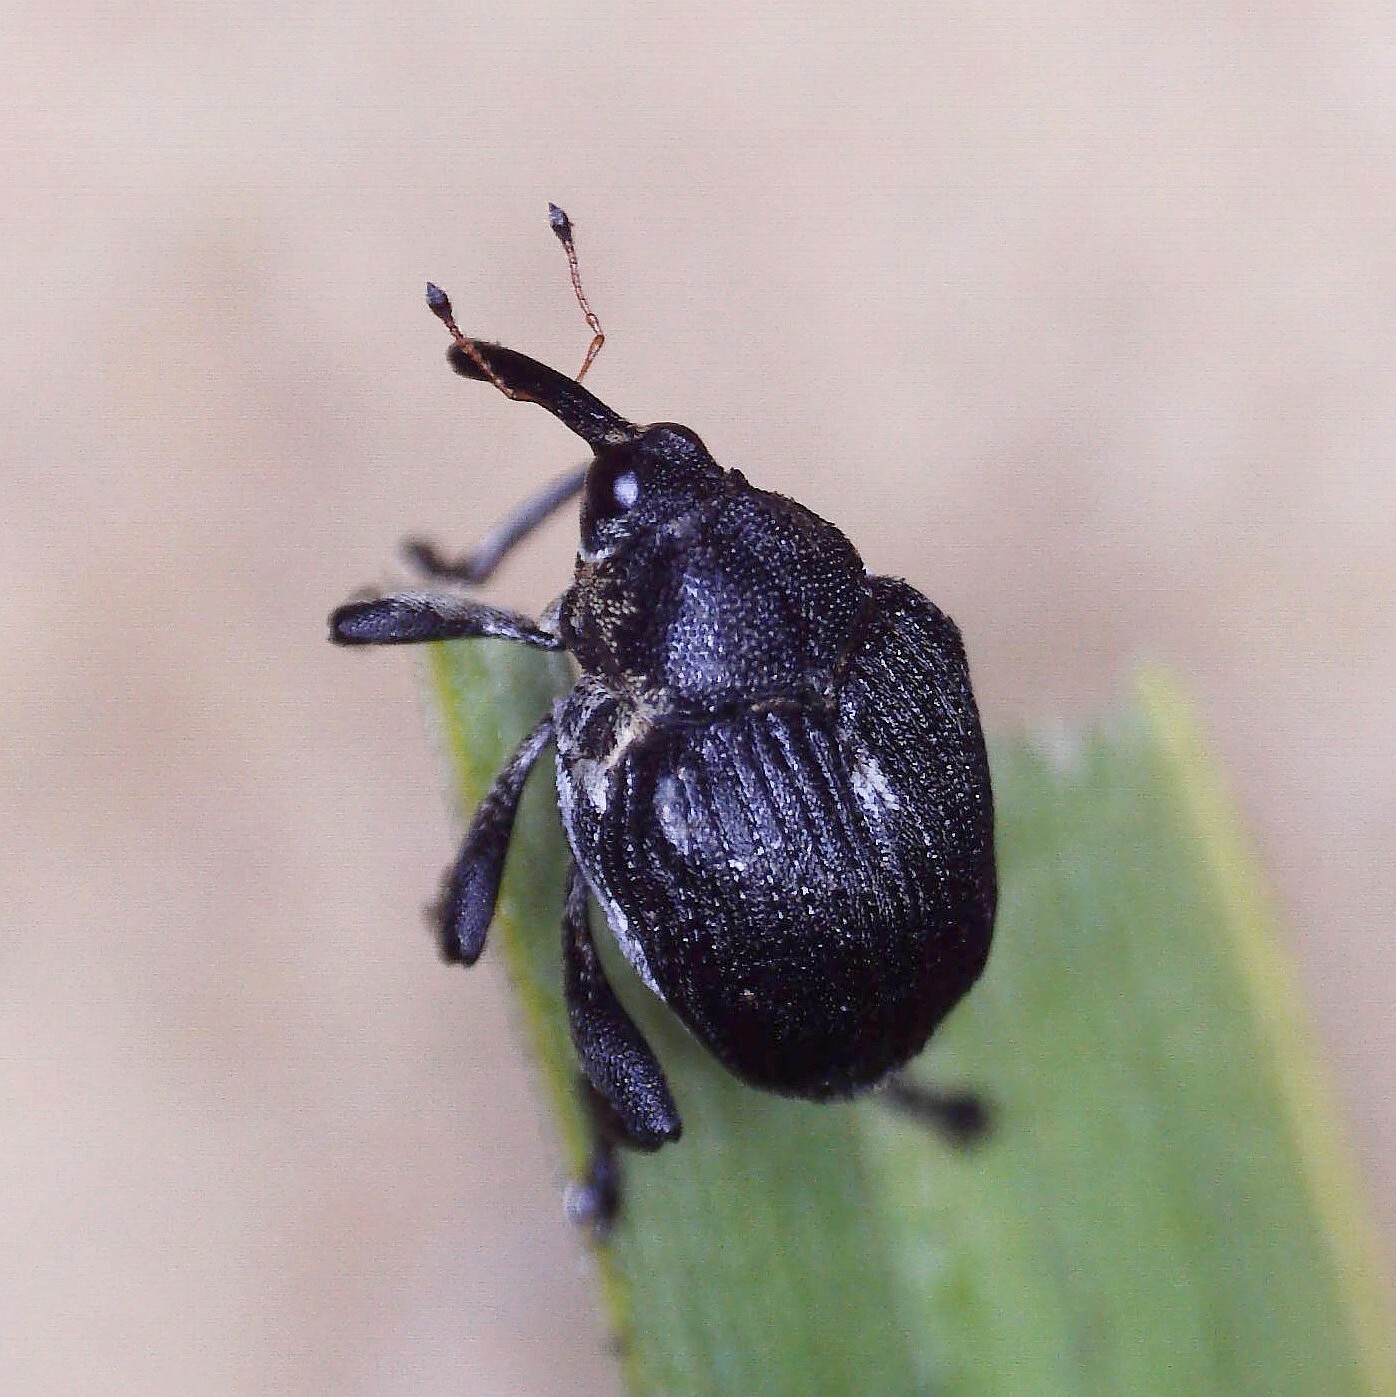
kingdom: Animalia
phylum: Arthropoda
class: Insecta
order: Coleoptera
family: Curculionidae
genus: Mononychus
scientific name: Mononychus punctumalbum
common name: Iris weevil
